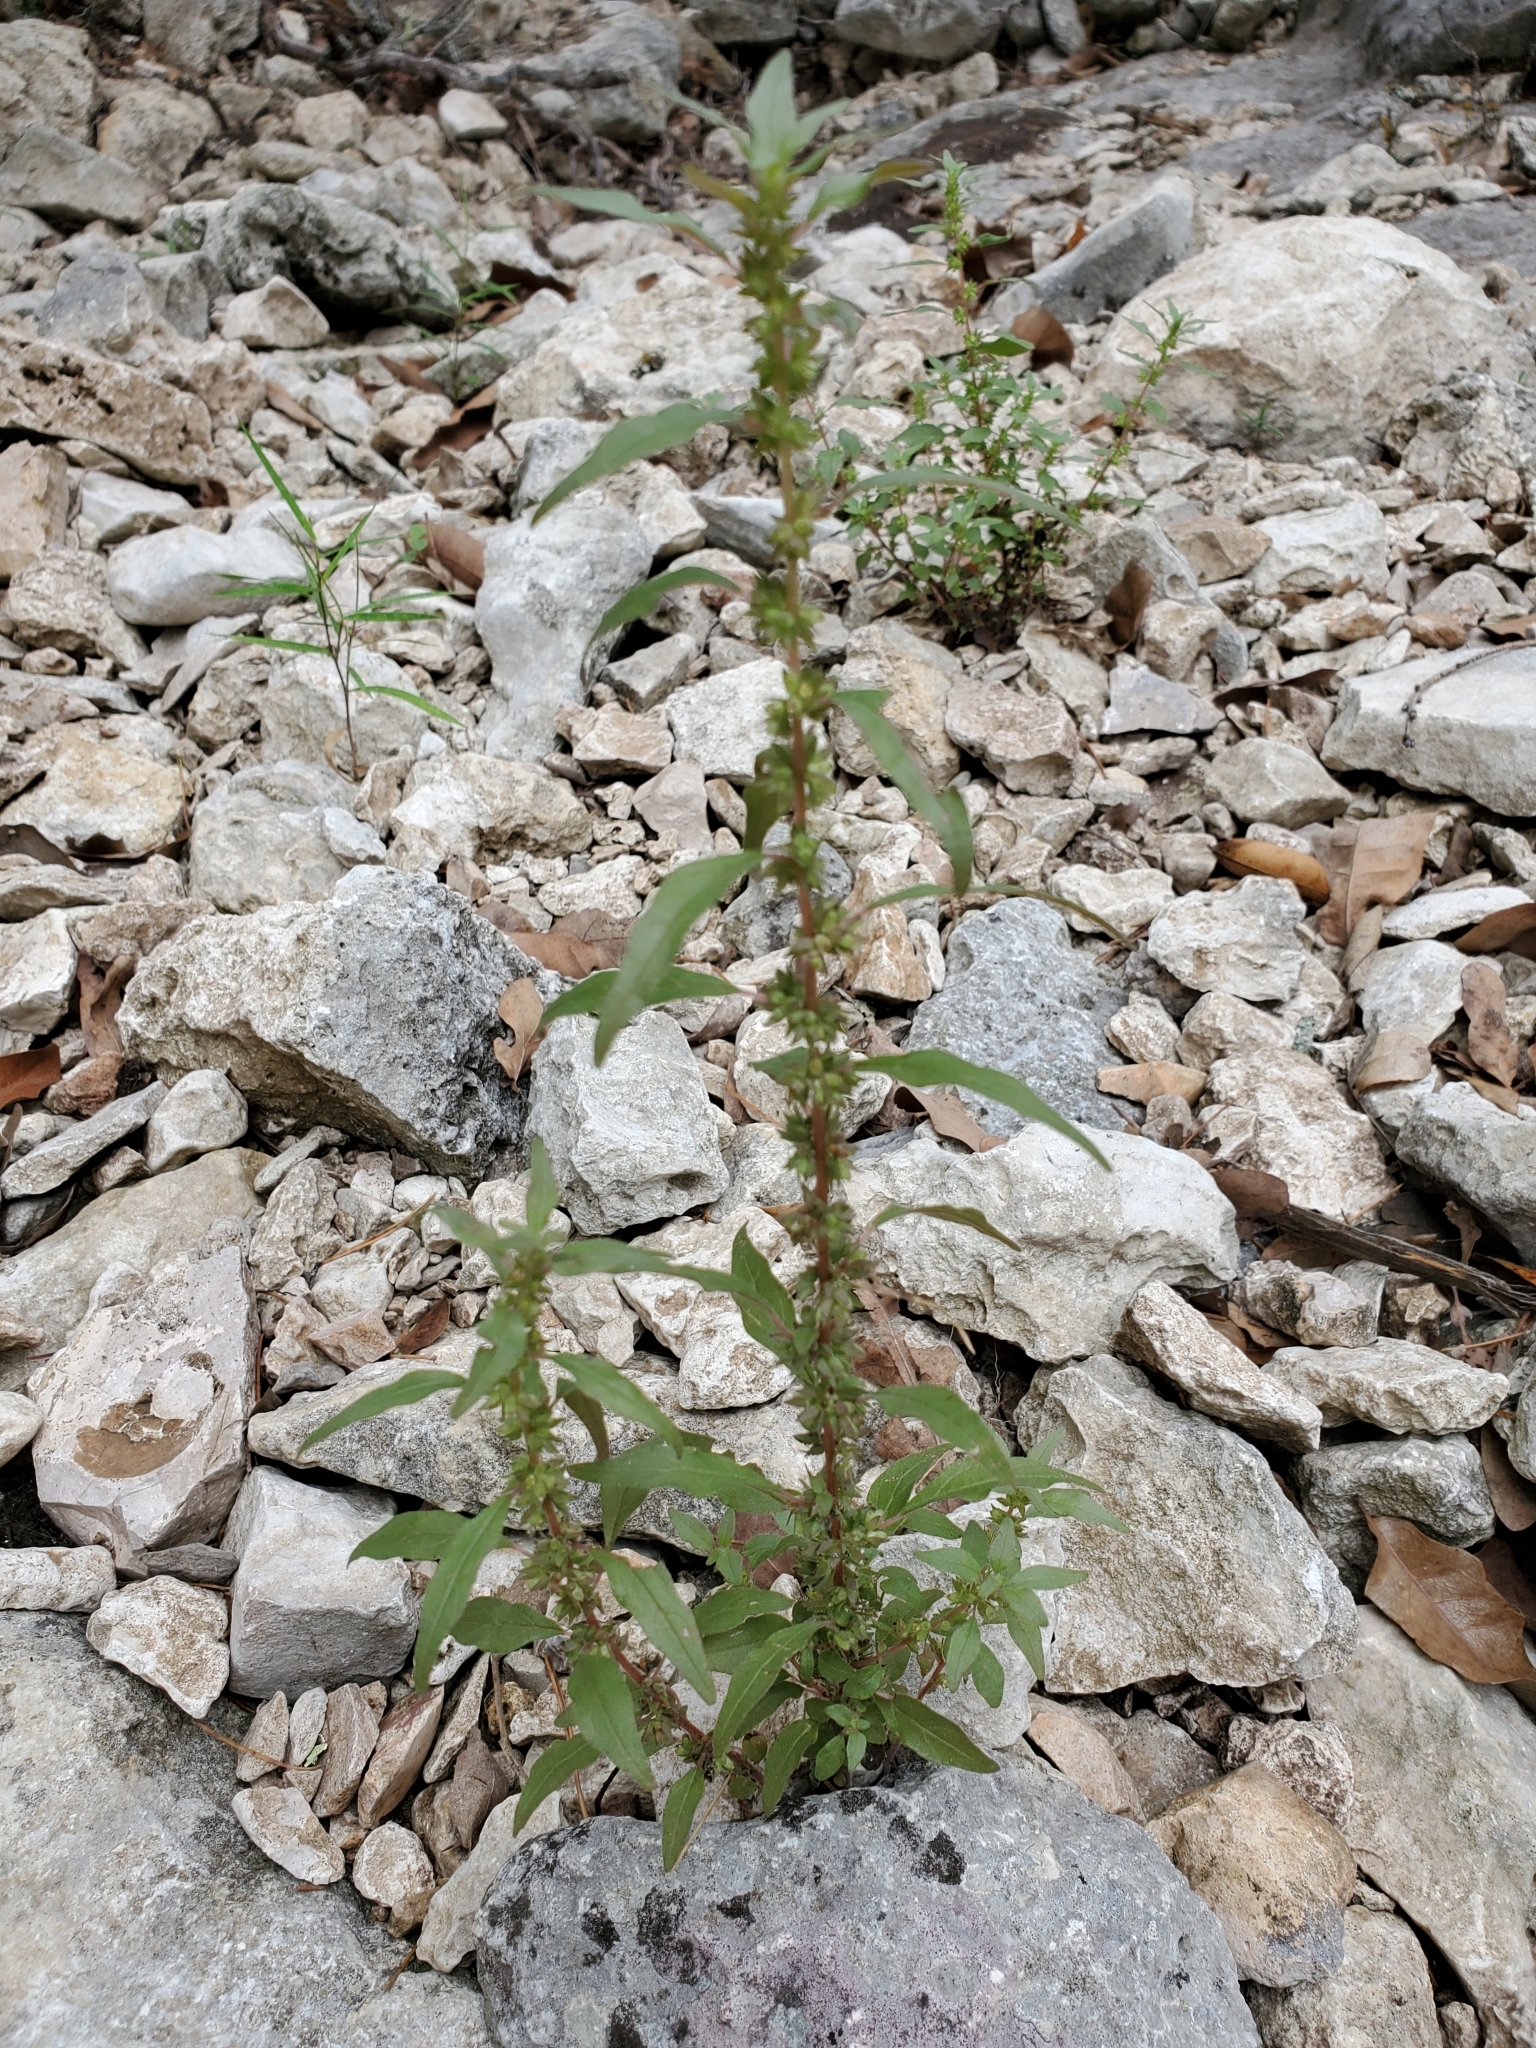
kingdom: Plantae
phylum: Tracheophyta
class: Magnoliopsida
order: Rosales
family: Urticaceae
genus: Parietaria
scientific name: Parietaria pensylvanica
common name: Pennsylvania pellitory
